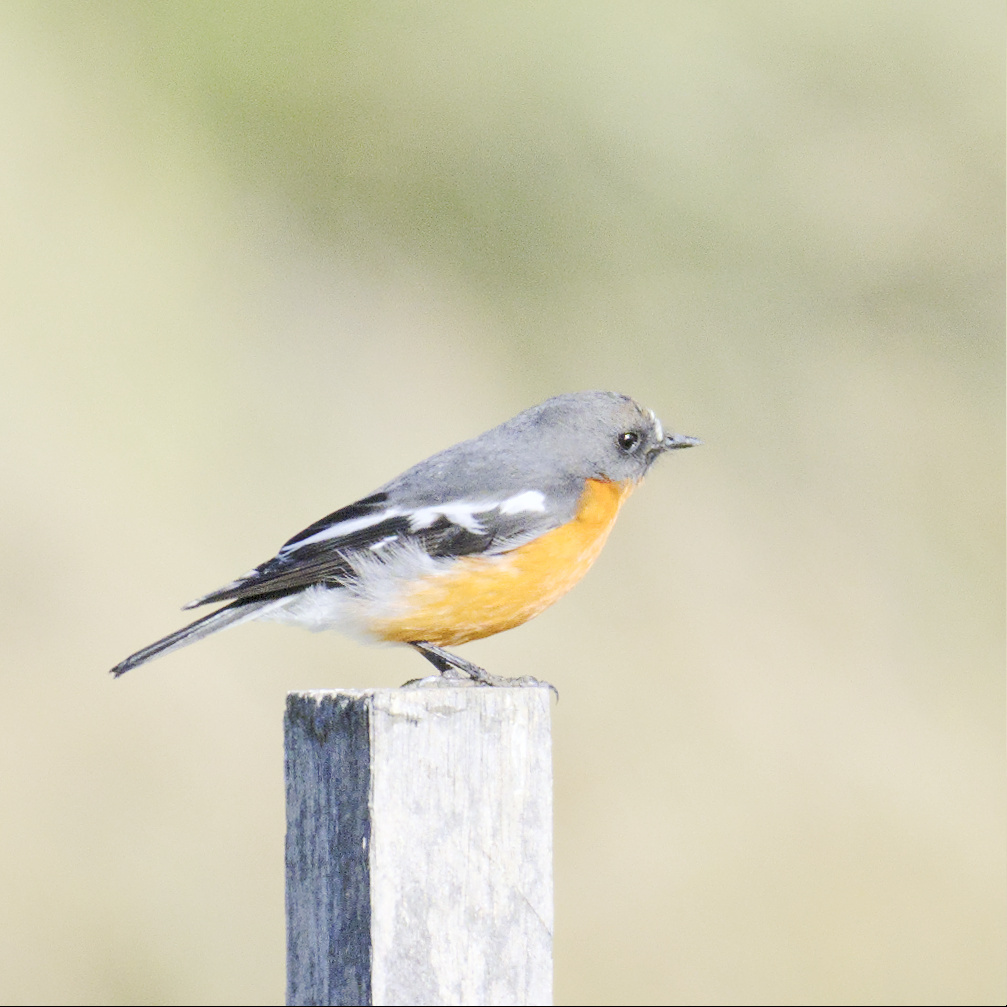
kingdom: Animalia
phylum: Chordata
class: Aves
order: Passeriformes
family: Petroicidae
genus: Petroica
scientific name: Petroica phoenicea
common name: Flame robin
